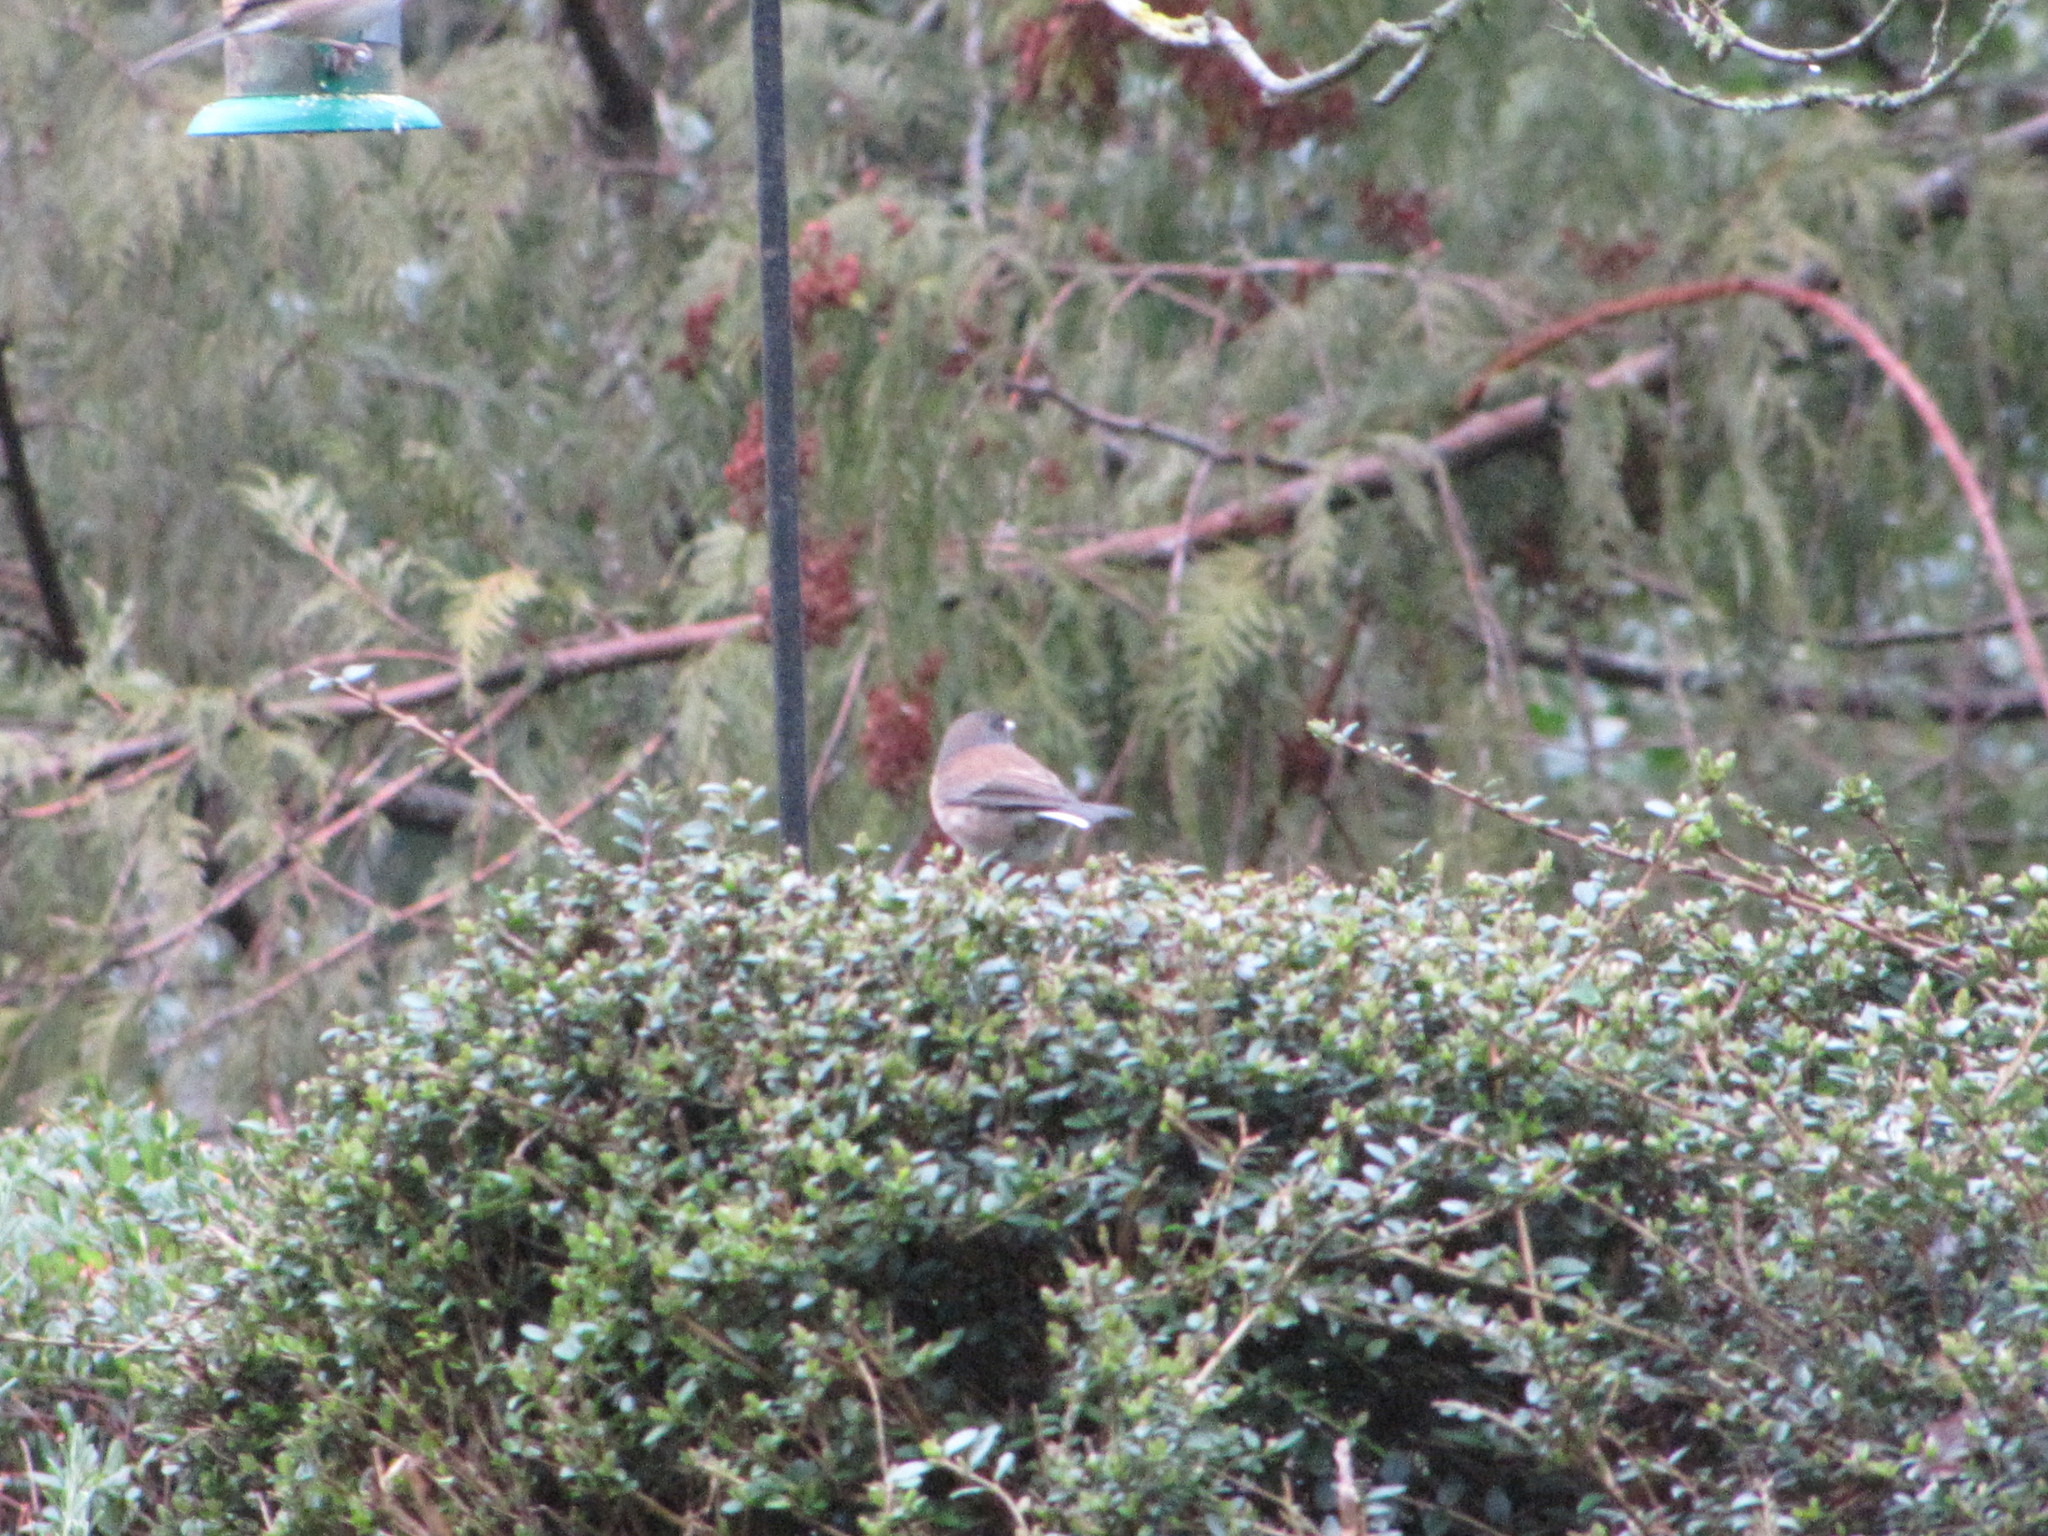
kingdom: Animalia
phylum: Chordata
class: Aves
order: Passeriformes
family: Passerellidae
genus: Junco
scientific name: Junco hyemalis
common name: Dark-eyed junco
